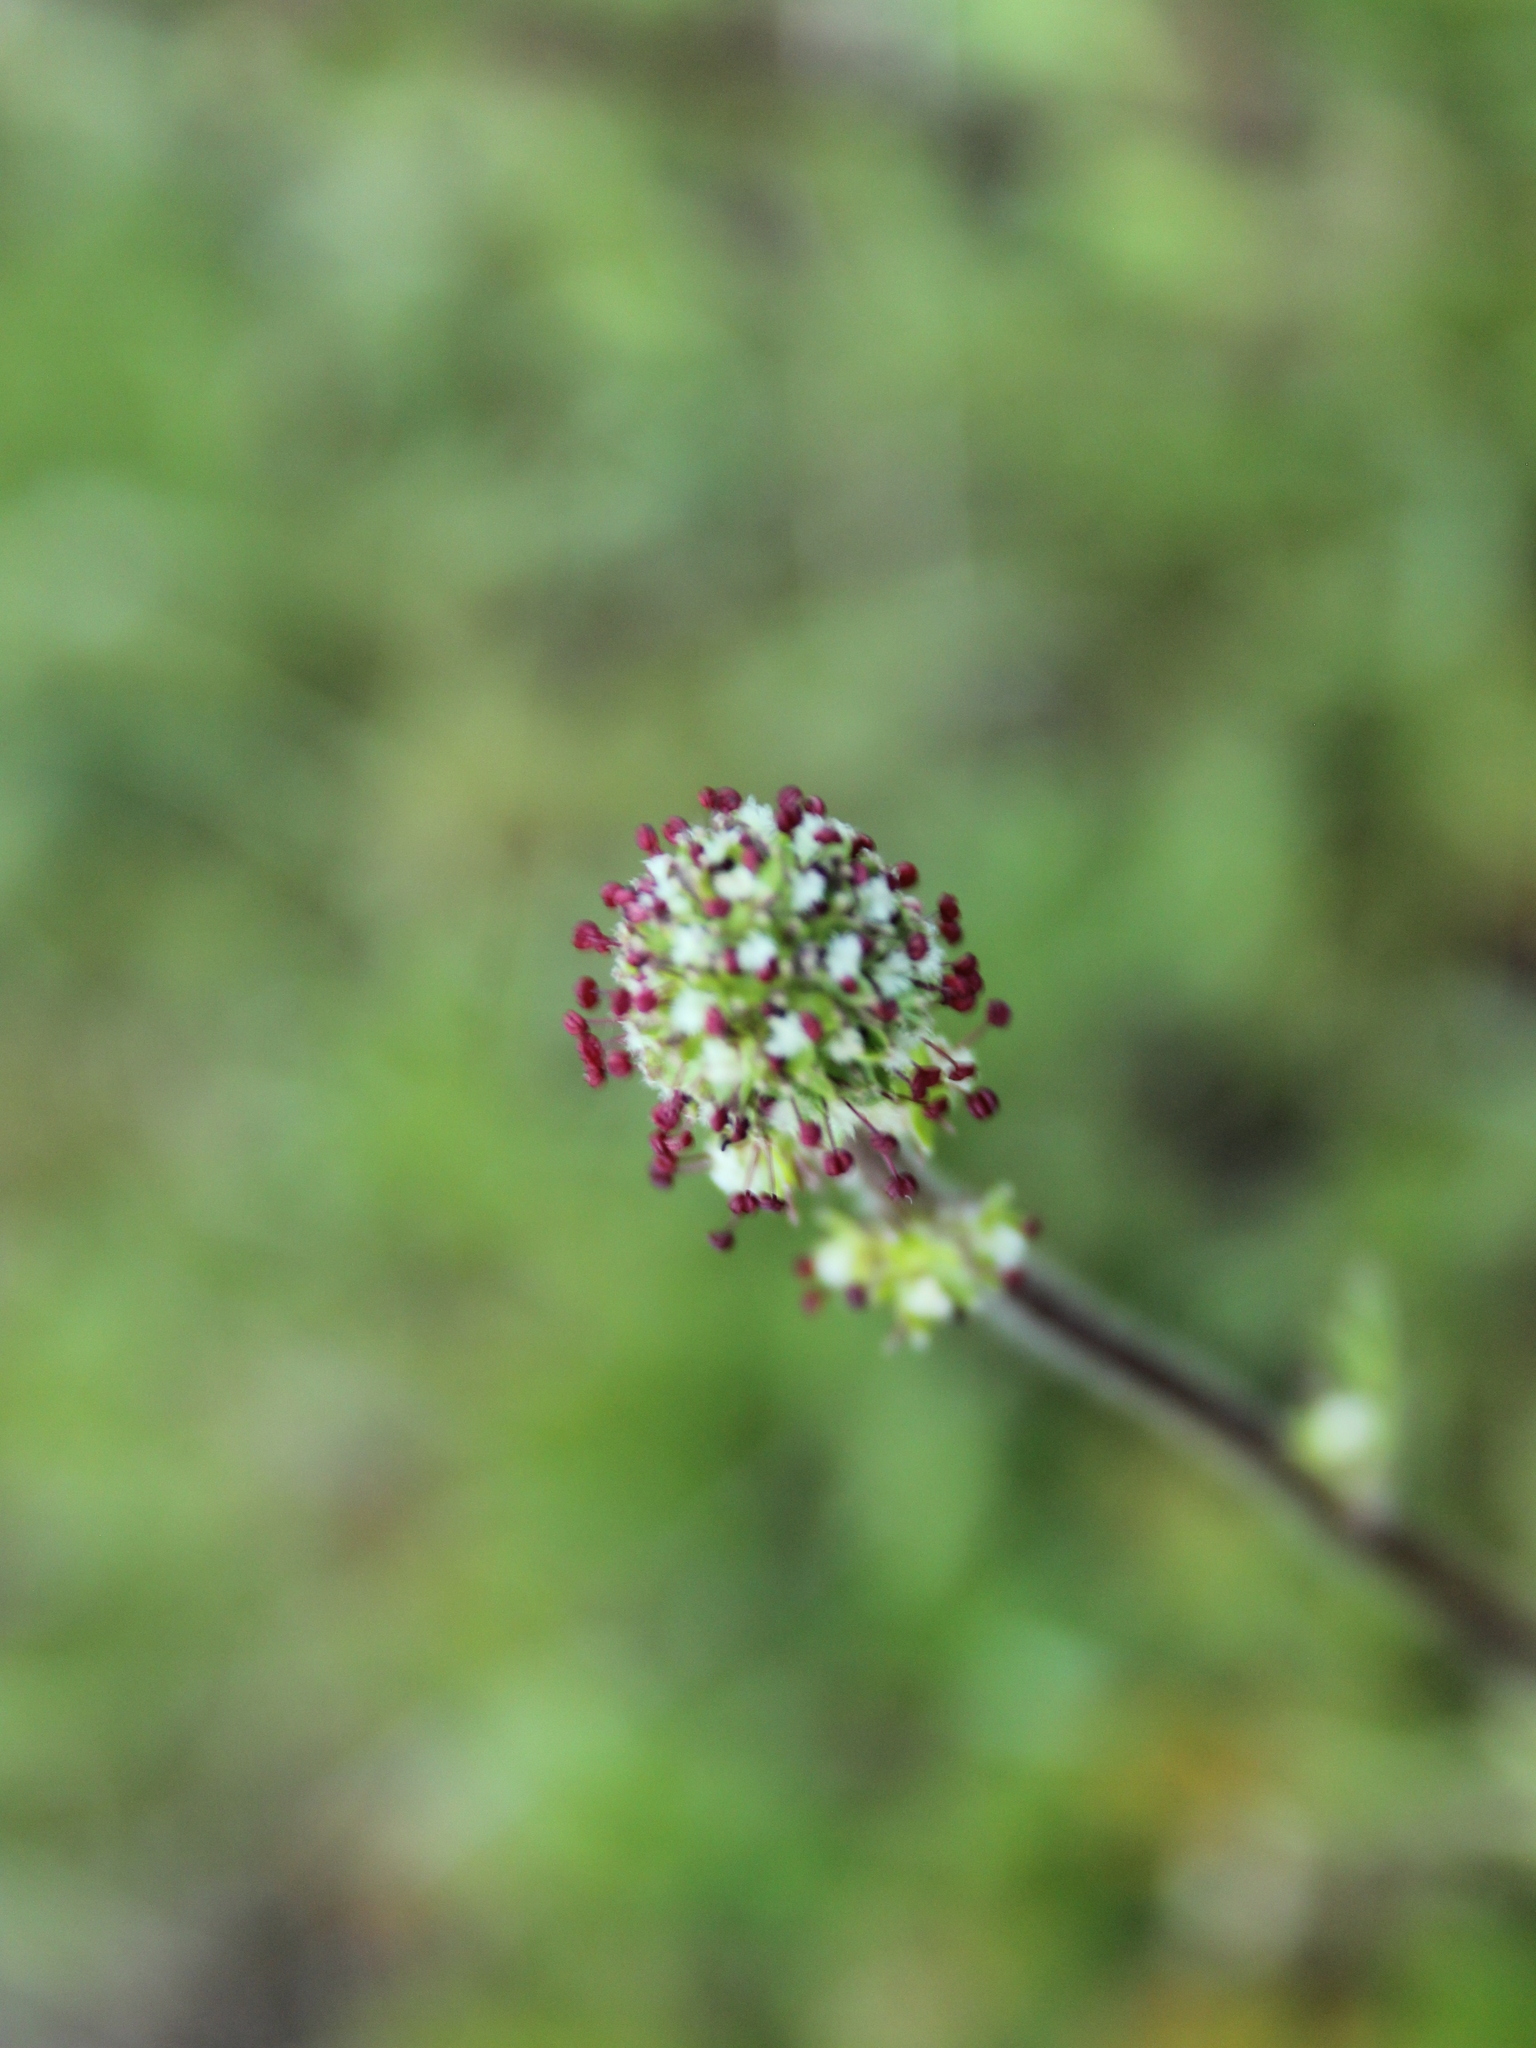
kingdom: Plantae
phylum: Tracheophyta
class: Magnoliopsida
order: Rosales
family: Rosaceae
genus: Acaena
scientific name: Acaena
